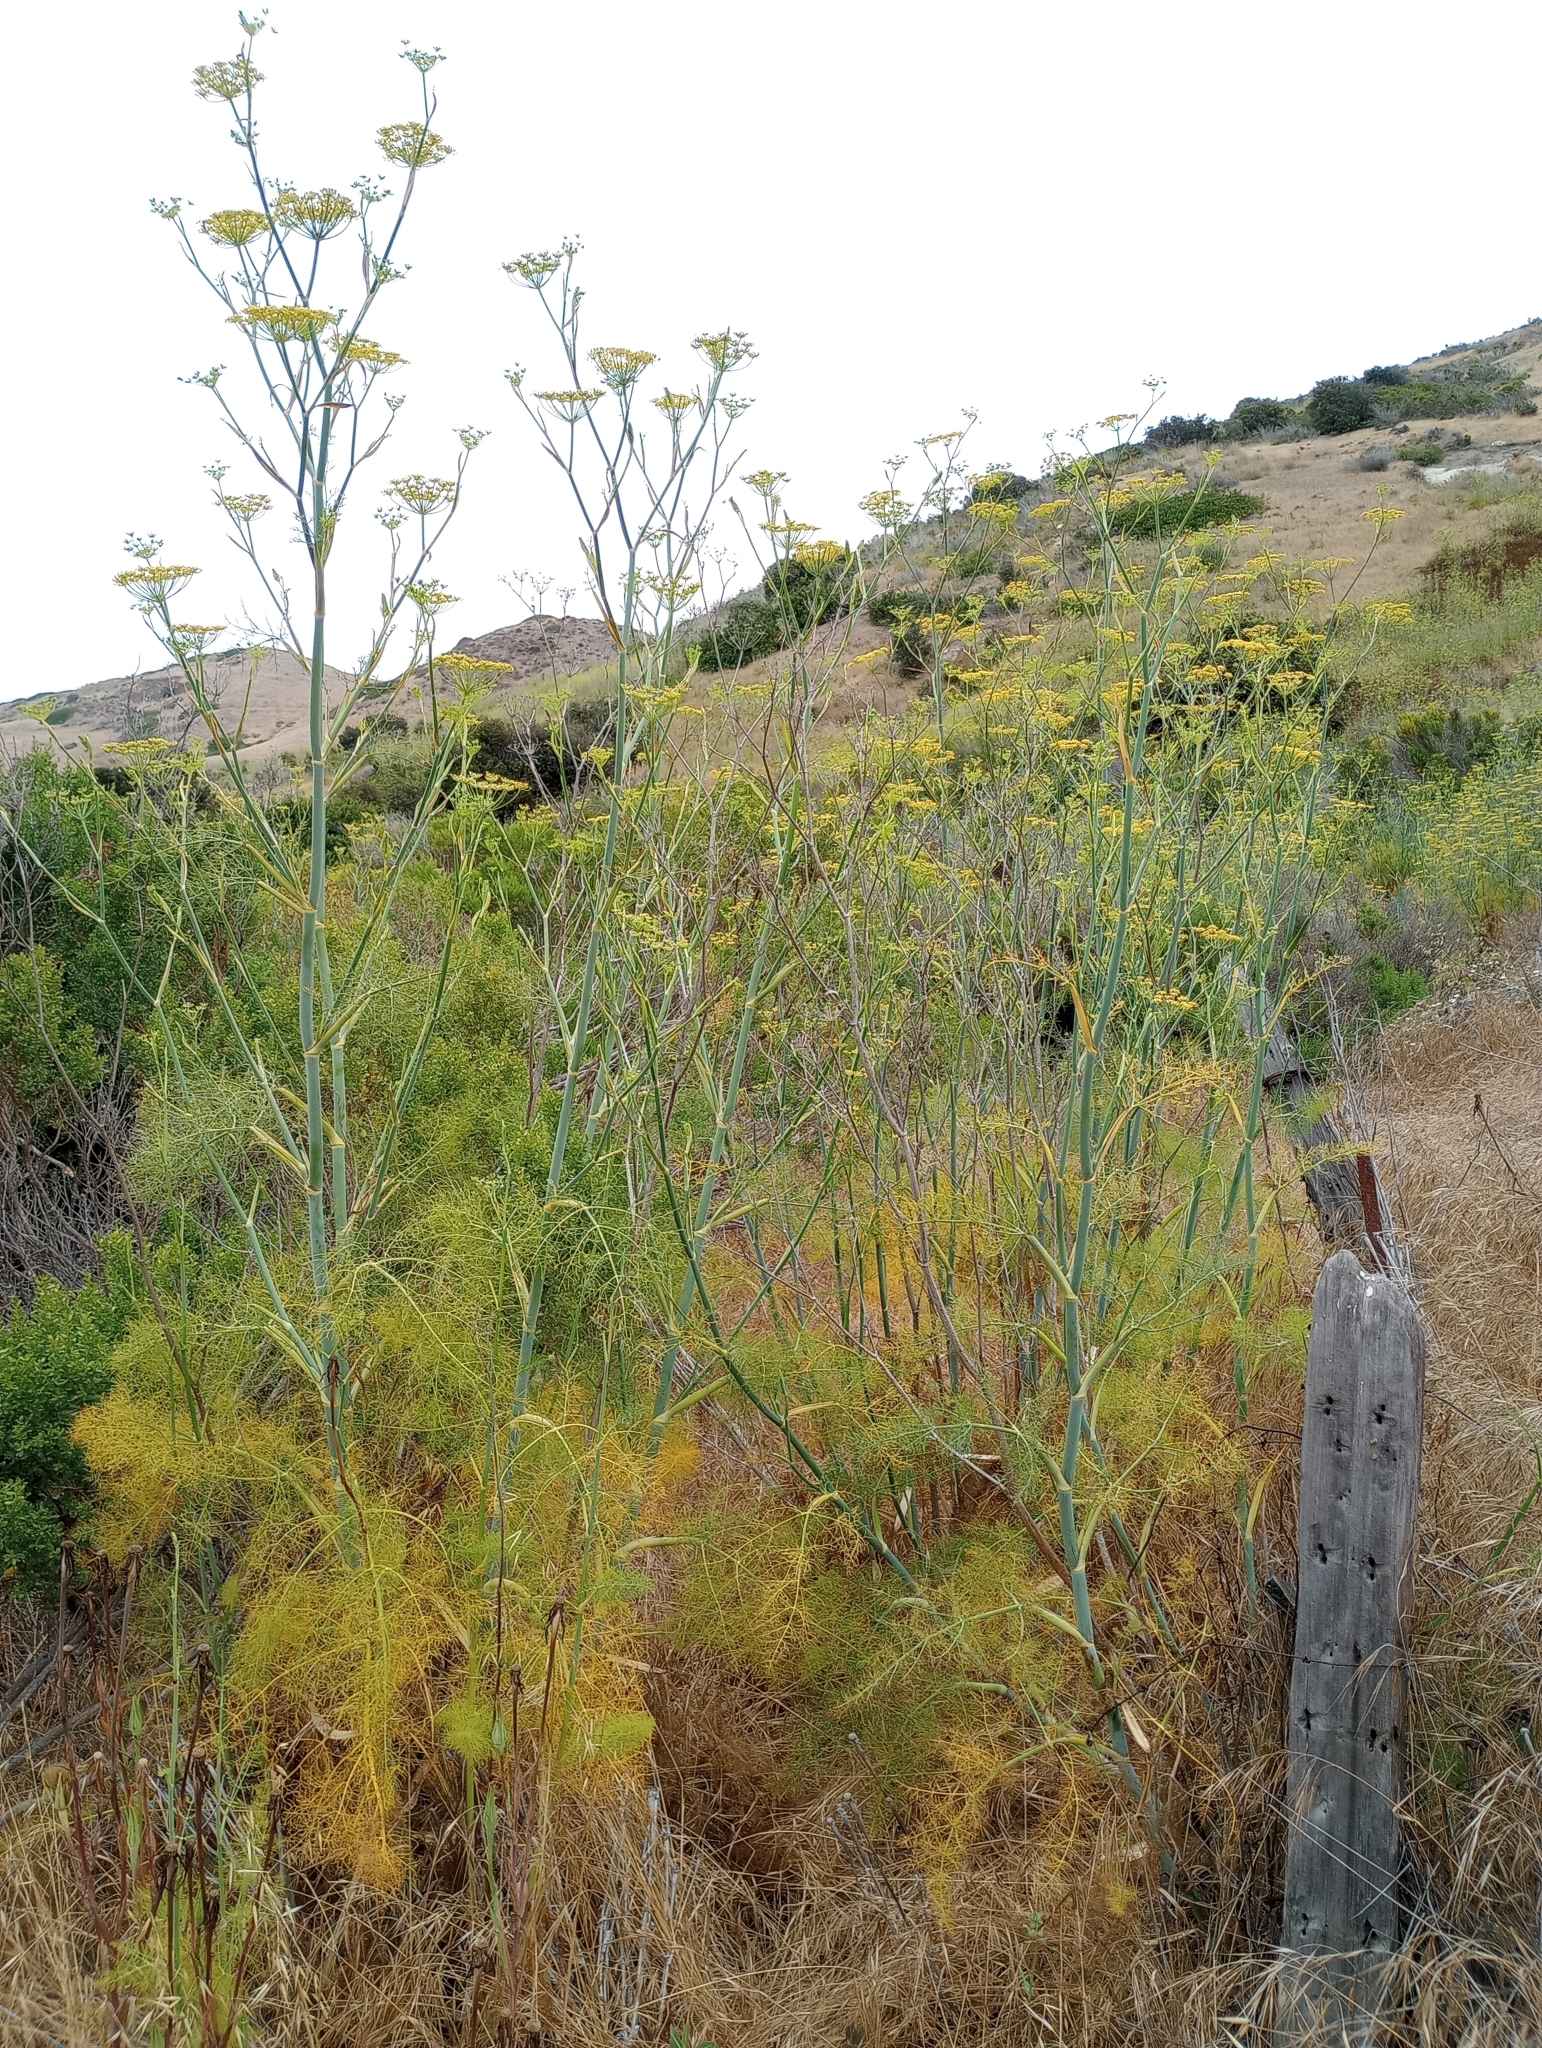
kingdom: Plantae
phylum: Tracheophyta
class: Magnoliopsida
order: Apiales
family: Apiaceae
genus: Foeniculum
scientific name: Foeniculum vulgare
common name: Fennel
